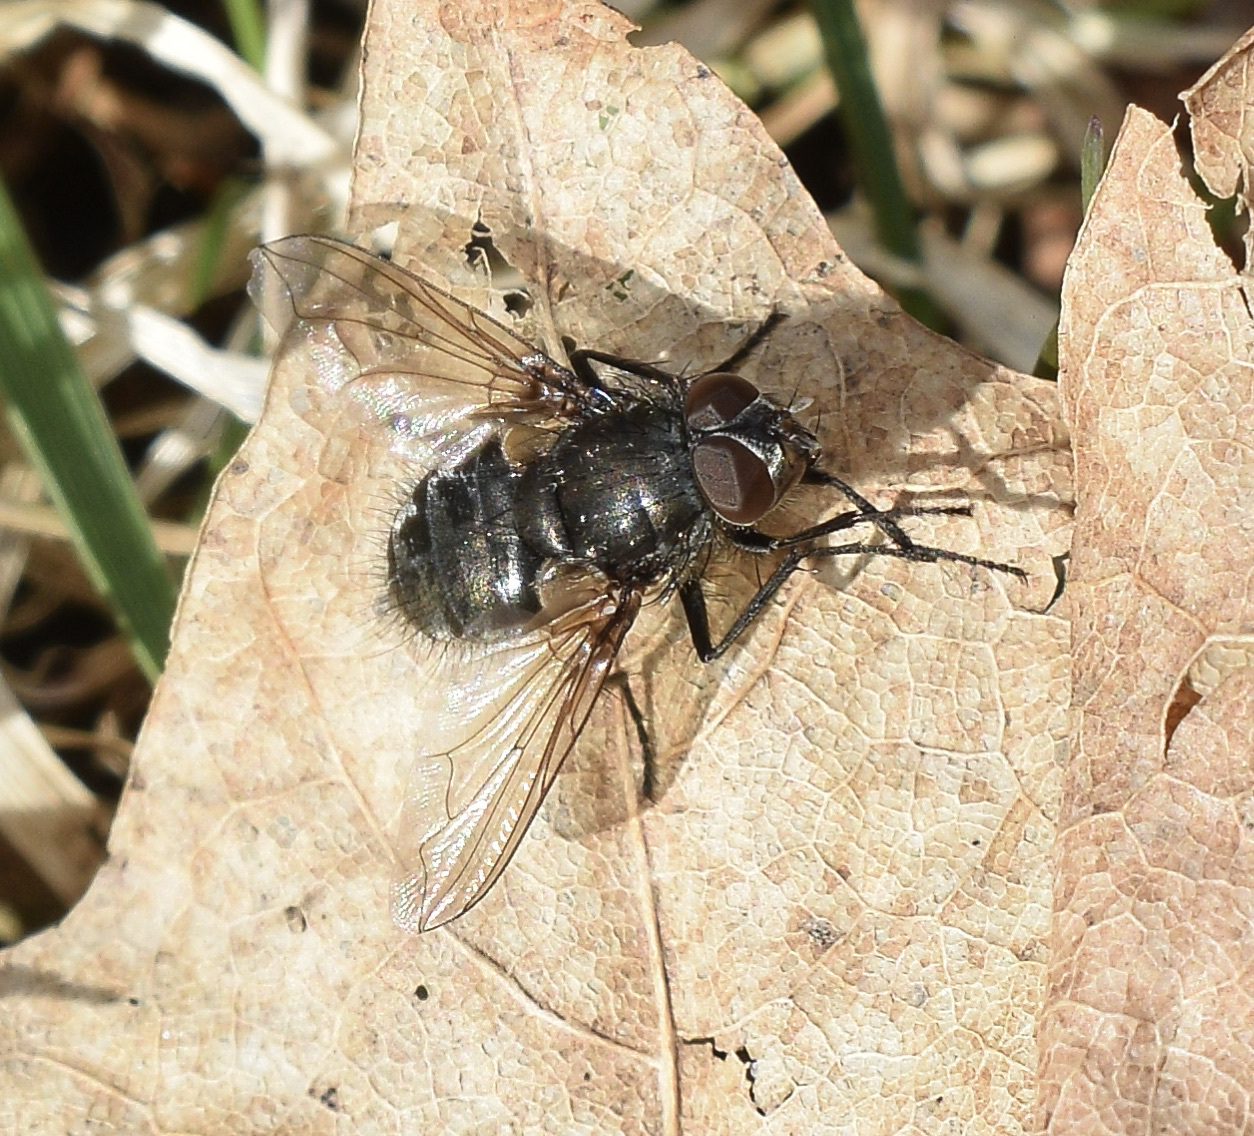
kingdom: Animalia
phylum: Arthropoda
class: Insecta
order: Diptera
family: Polleniidae
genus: Pollenia
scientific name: Pollenia
